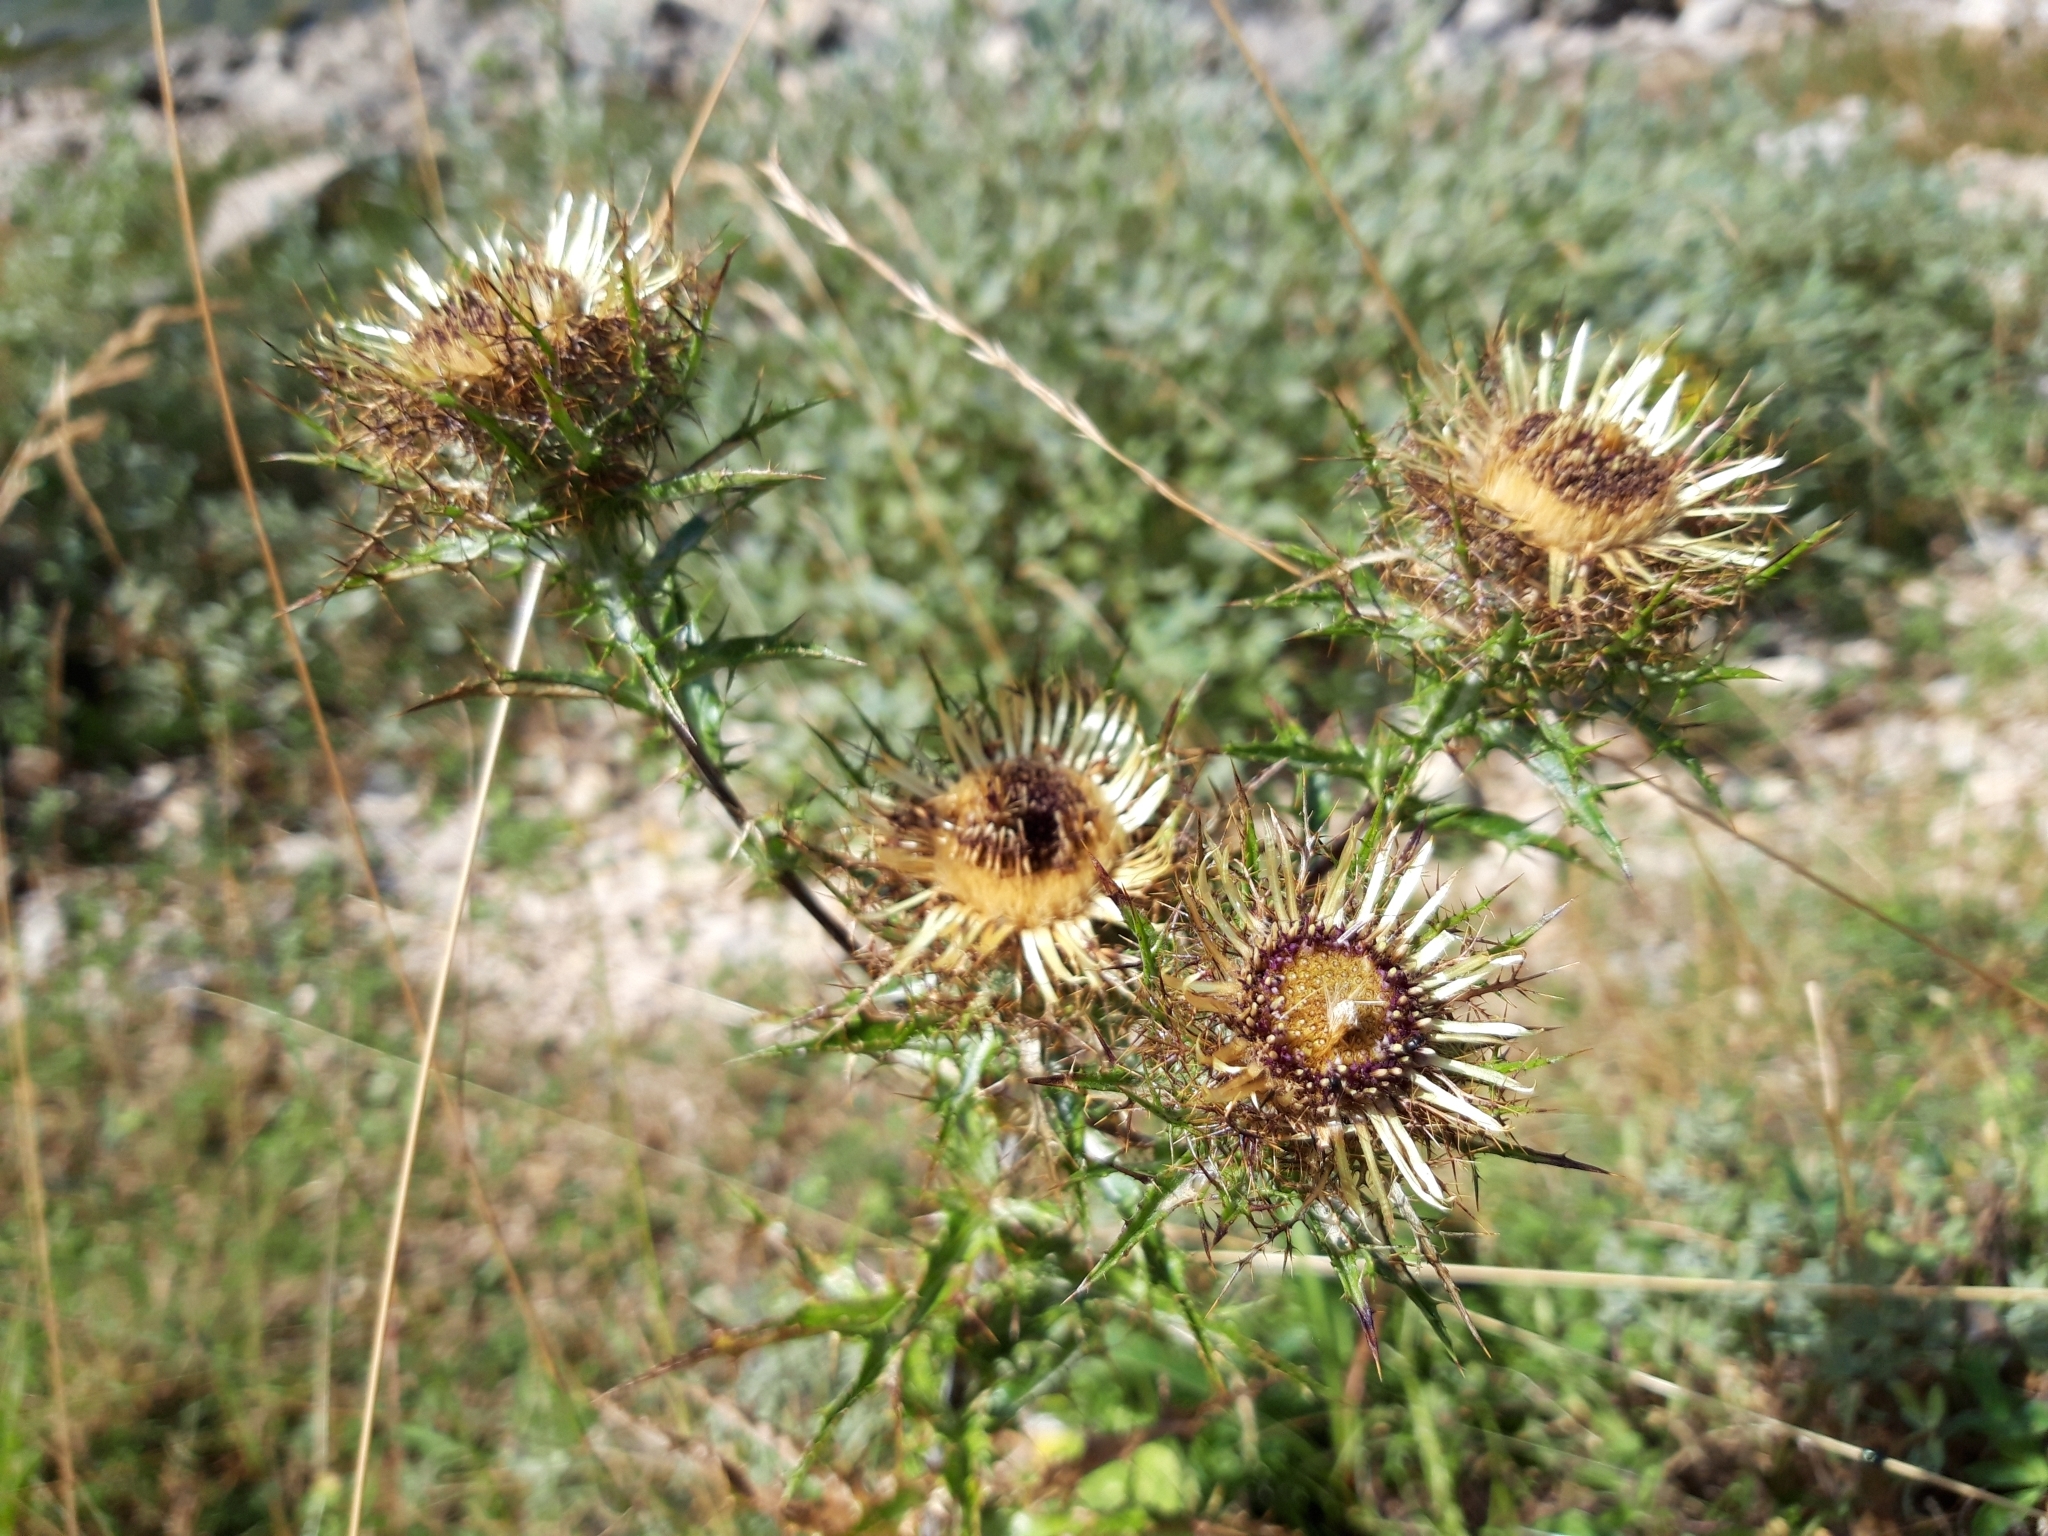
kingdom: Plantae
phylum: Tracheophyta
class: Magnoliopsida
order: Asterales
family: Asteraceae
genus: Carlina
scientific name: Carlina vulgaris
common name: Carline thistle
